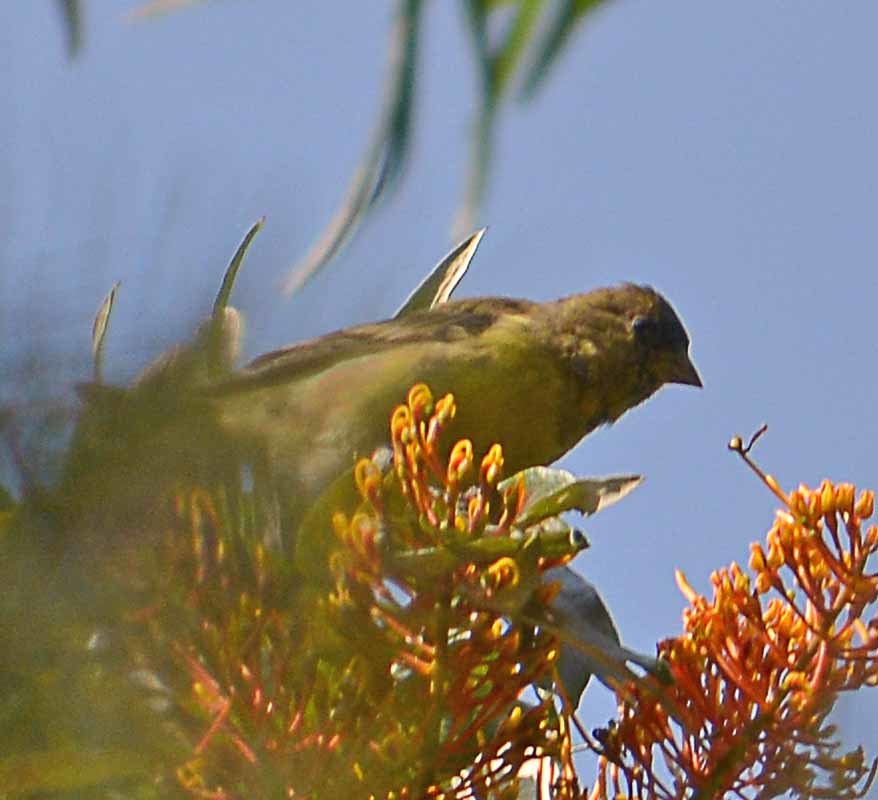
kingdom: Animalia
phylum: Chordata
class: Aves
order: Passeriformes
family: Fringillidae
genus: Spinus
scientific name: Spinus psaltria
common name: Lesser goldfinch
